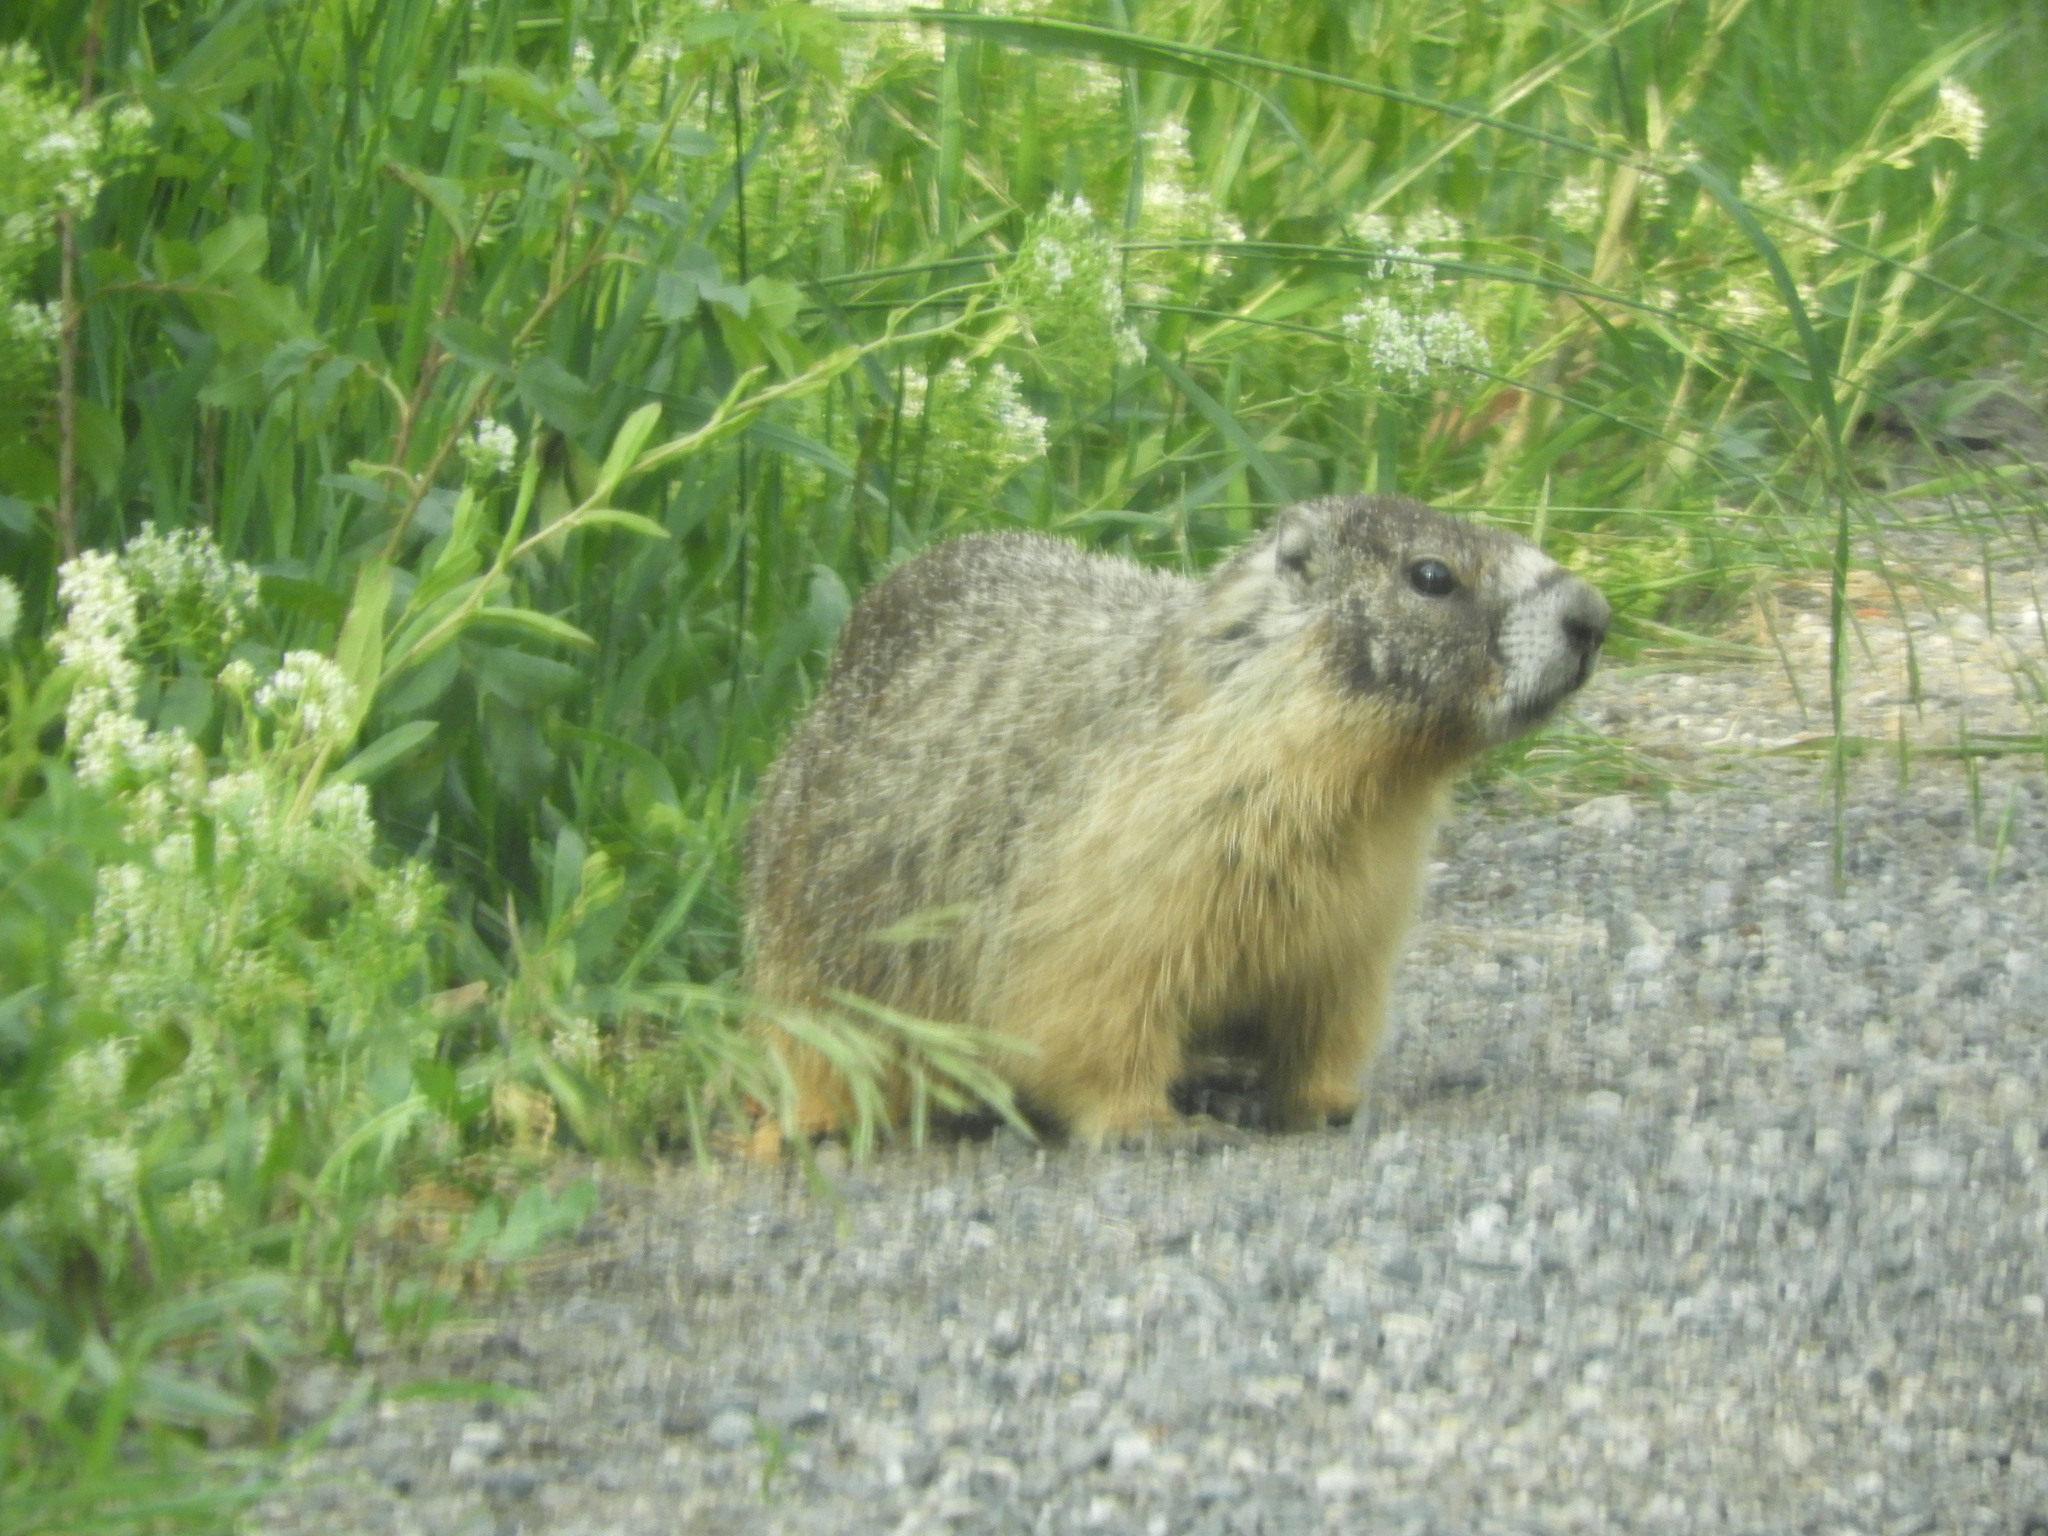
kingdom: Animalia
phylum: Chordata
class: Mammalia
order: Rodentia
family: Sciuridae
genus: Marmota
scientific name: Marmota flaviventris
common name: Yellow-bellied marmot
